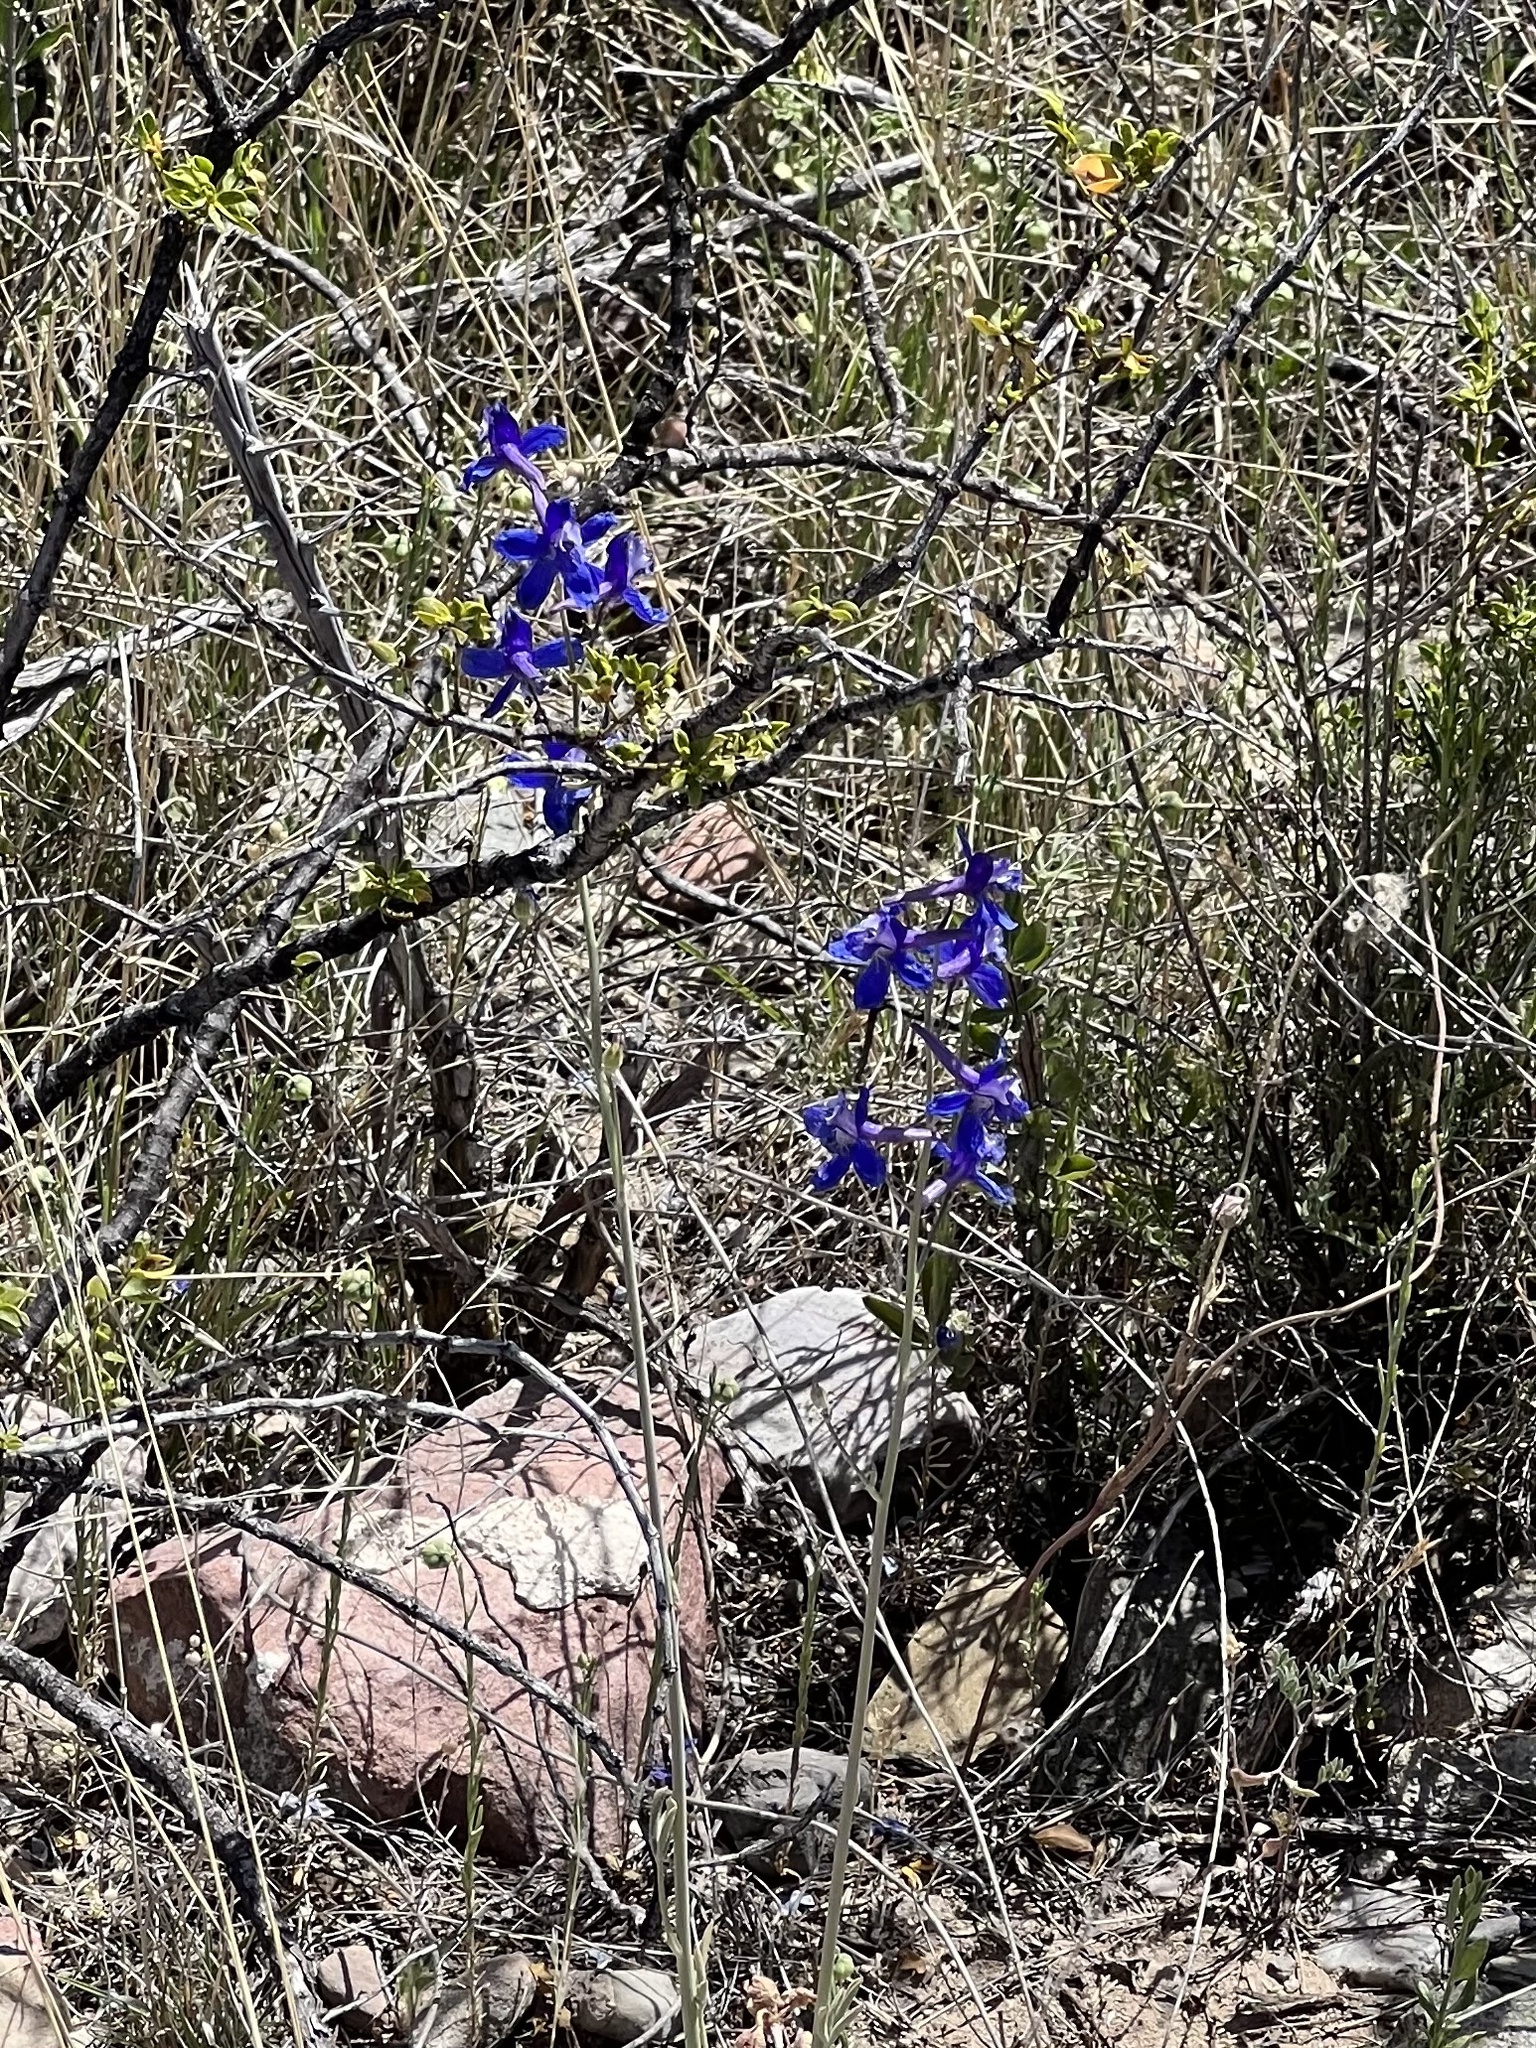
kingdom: Plantae
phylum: Tracheophyta
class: Magnoliopsida
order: Ranunculales
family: Ranunculaceae
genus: Delphinium
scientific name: Delphinium scaposum
